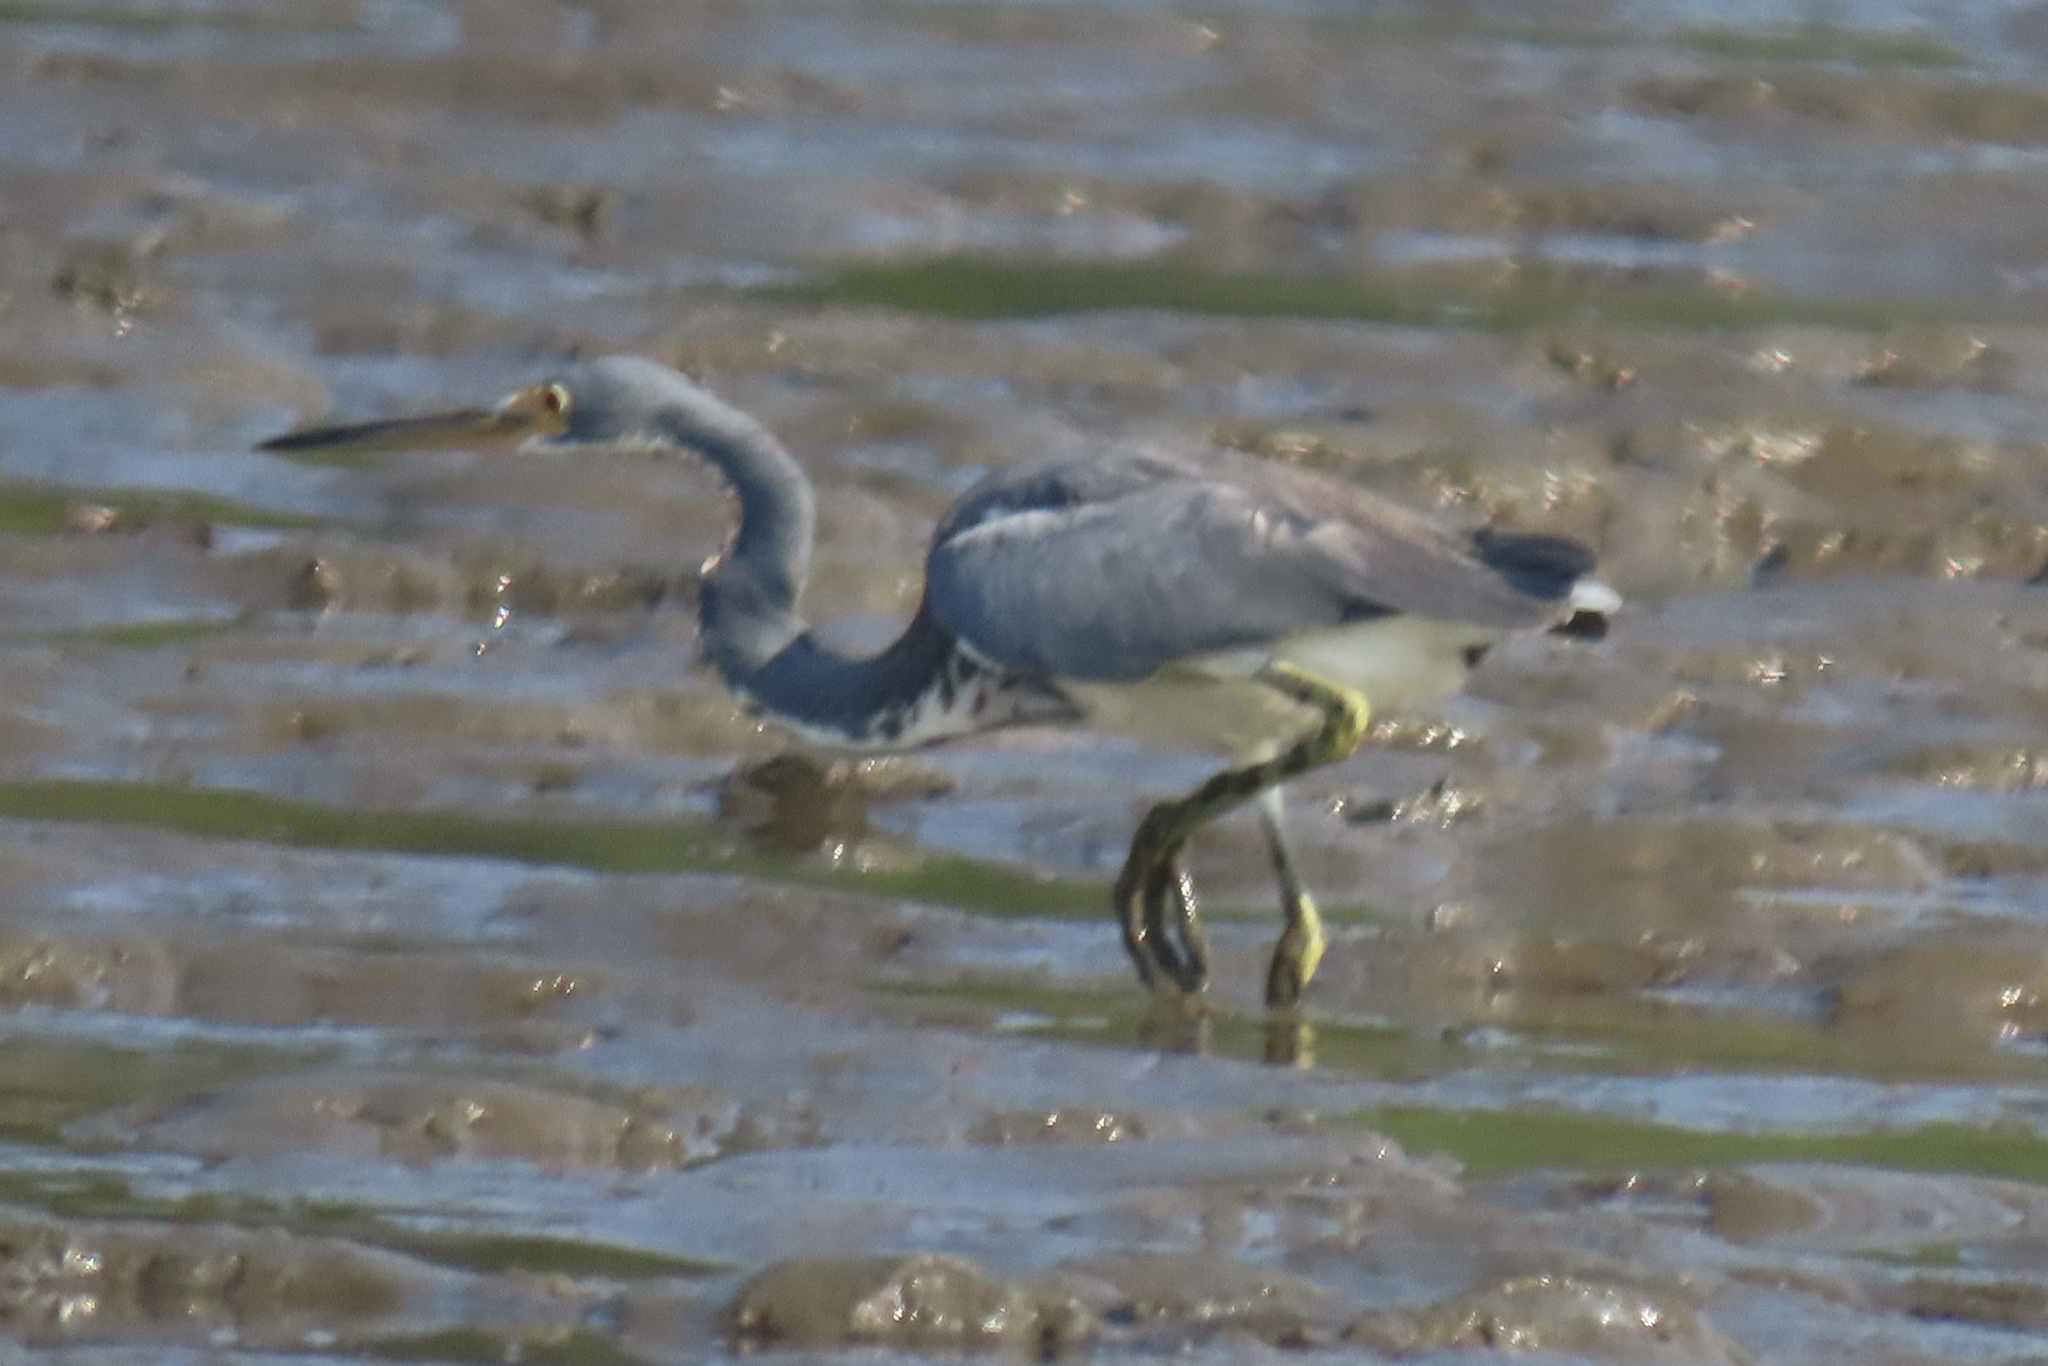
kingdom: Animalia
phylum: Chordata
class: Aves
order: Pelecaniformes
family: Ardeidae
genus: Egretta
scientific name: Egretta tricolor
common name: Tricolored heron
